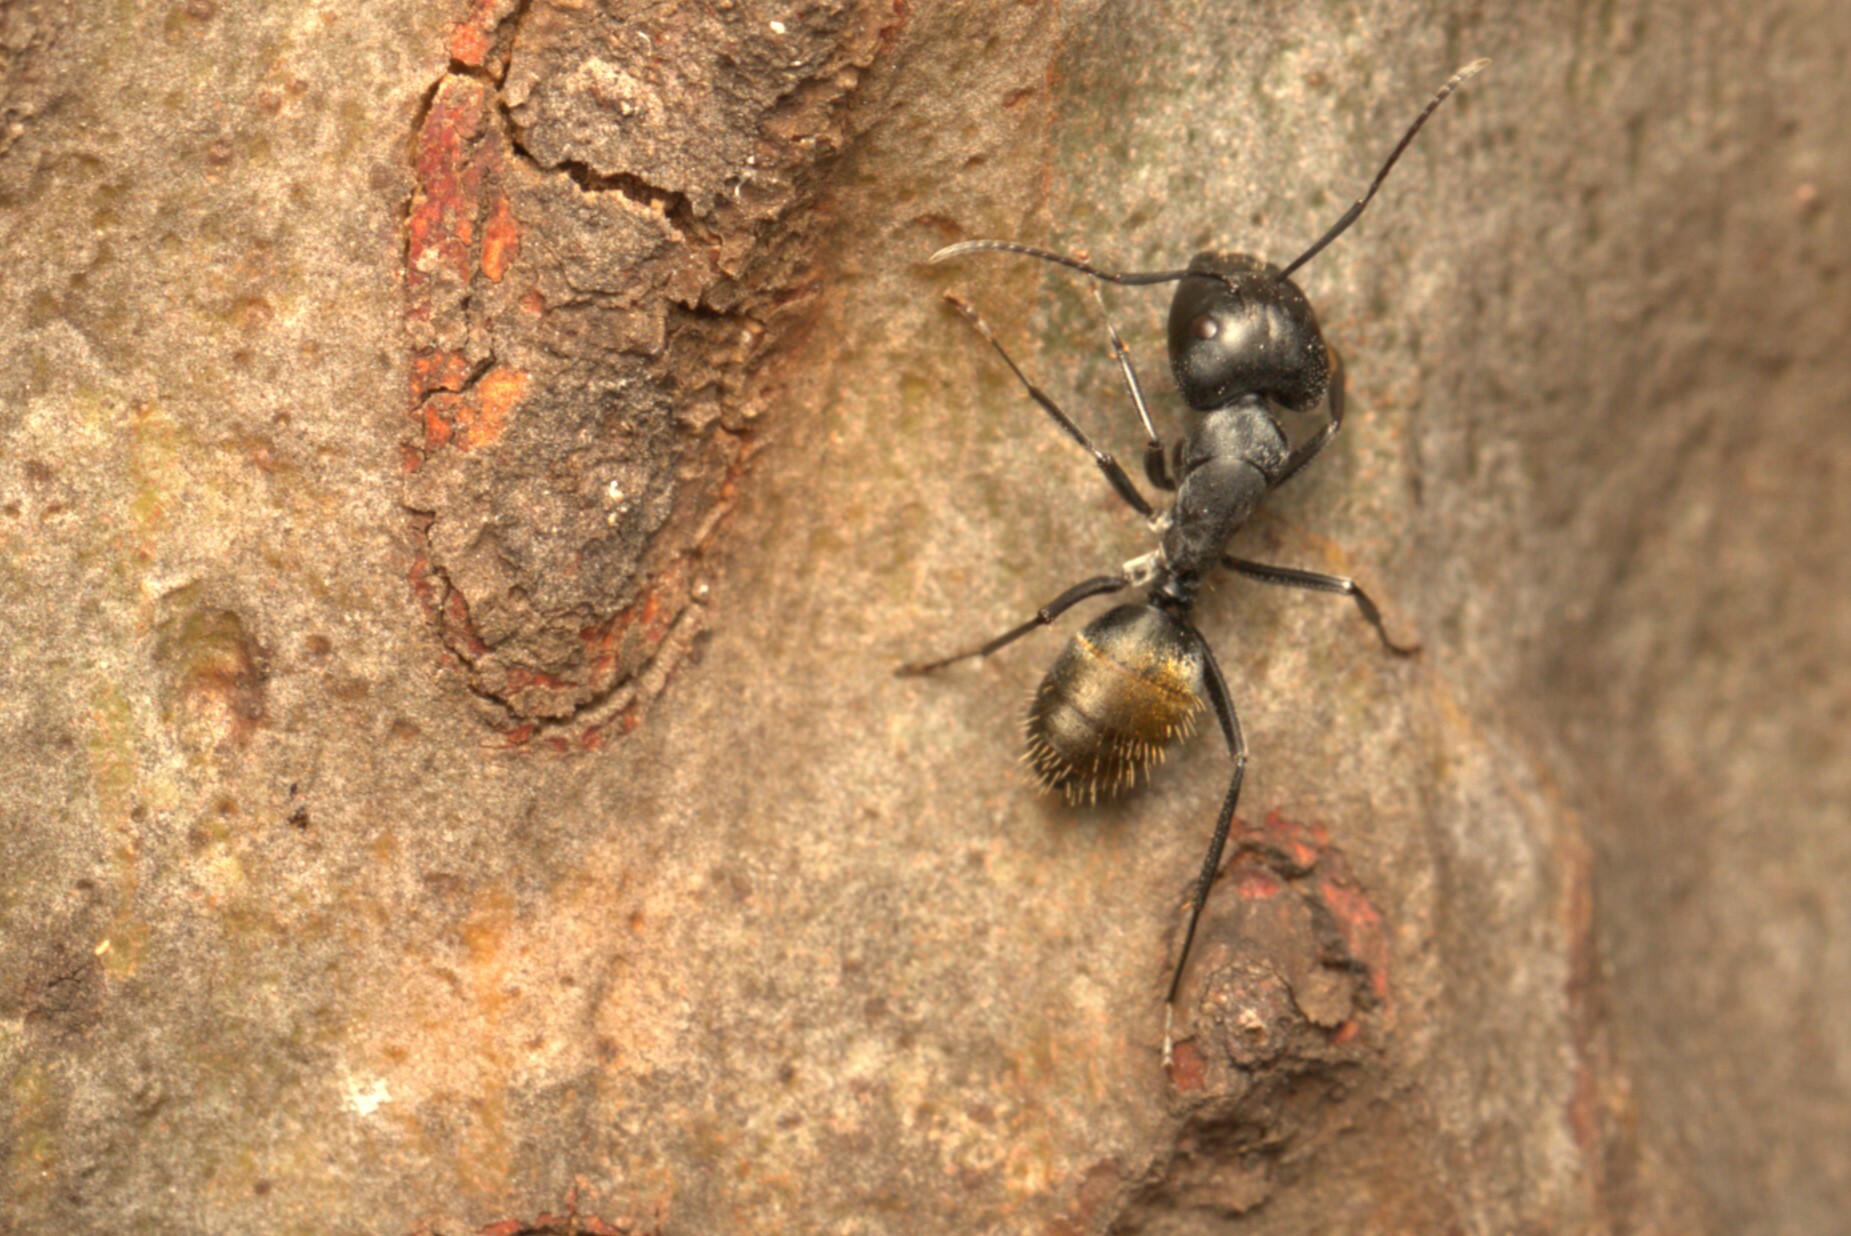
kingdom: Animalia
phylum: Arthropoda
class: Insecta
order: Hymenoptera
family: Formicidae
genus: Camponotus
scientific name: Camponotus aeneopilosus
